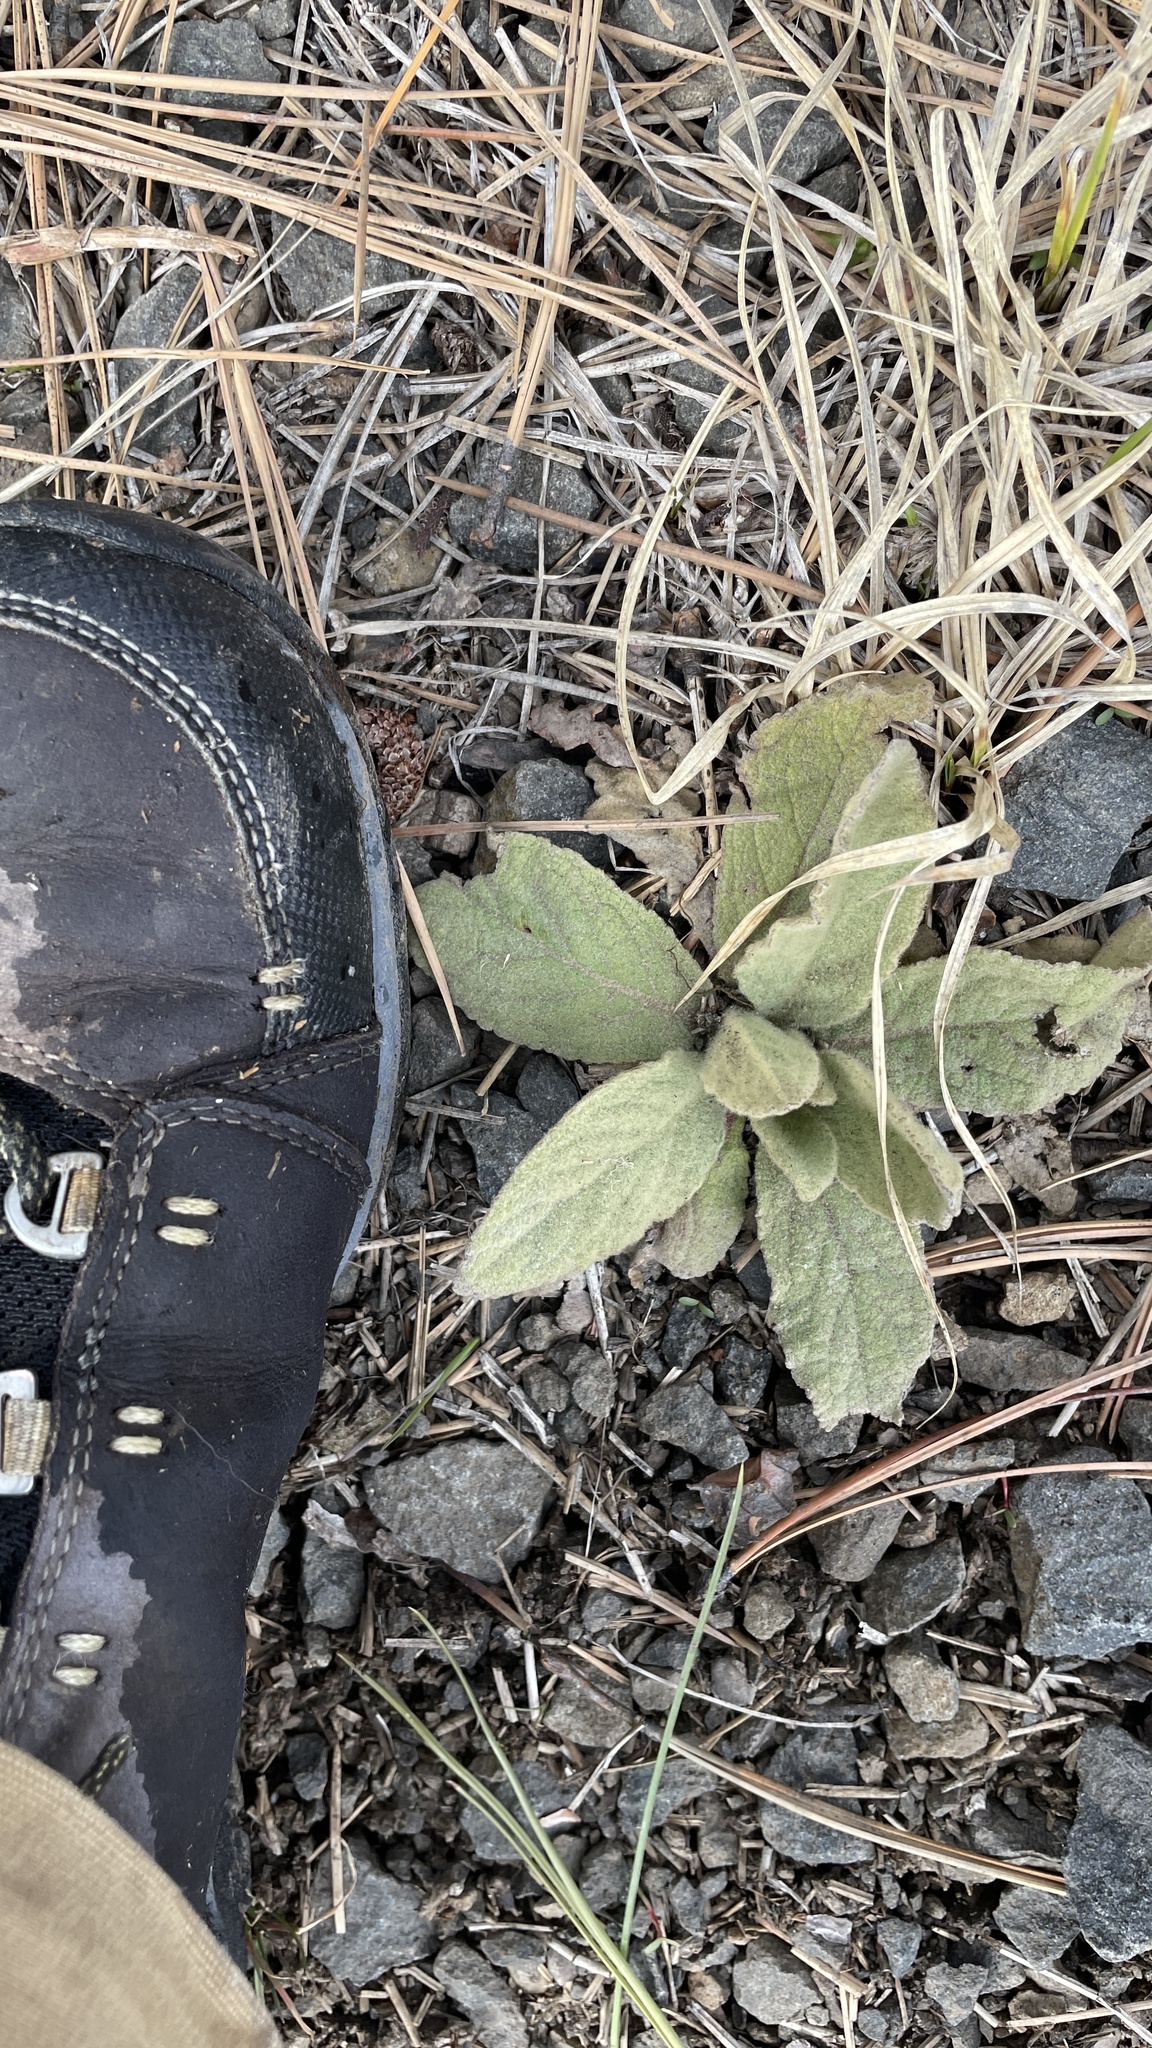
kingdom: Plantae
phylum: Tracheophyta
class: Magnoliopsida
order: Lamiales
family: Scrophulariaceae
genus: Verbascum
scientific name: Verbascum thapsus
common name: Common mullein
